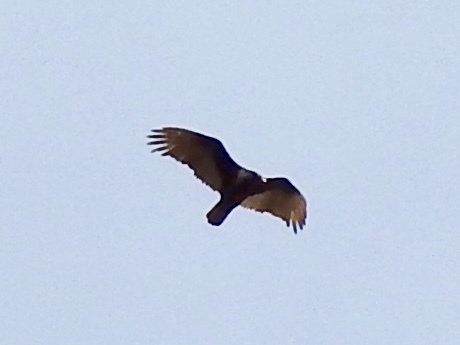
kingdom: Animalia
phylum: Chordata
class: Aves
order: Accipitriformes
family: Cathartidae
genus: Cathartes
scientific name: Cathartes aura
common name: Turkey vulture
